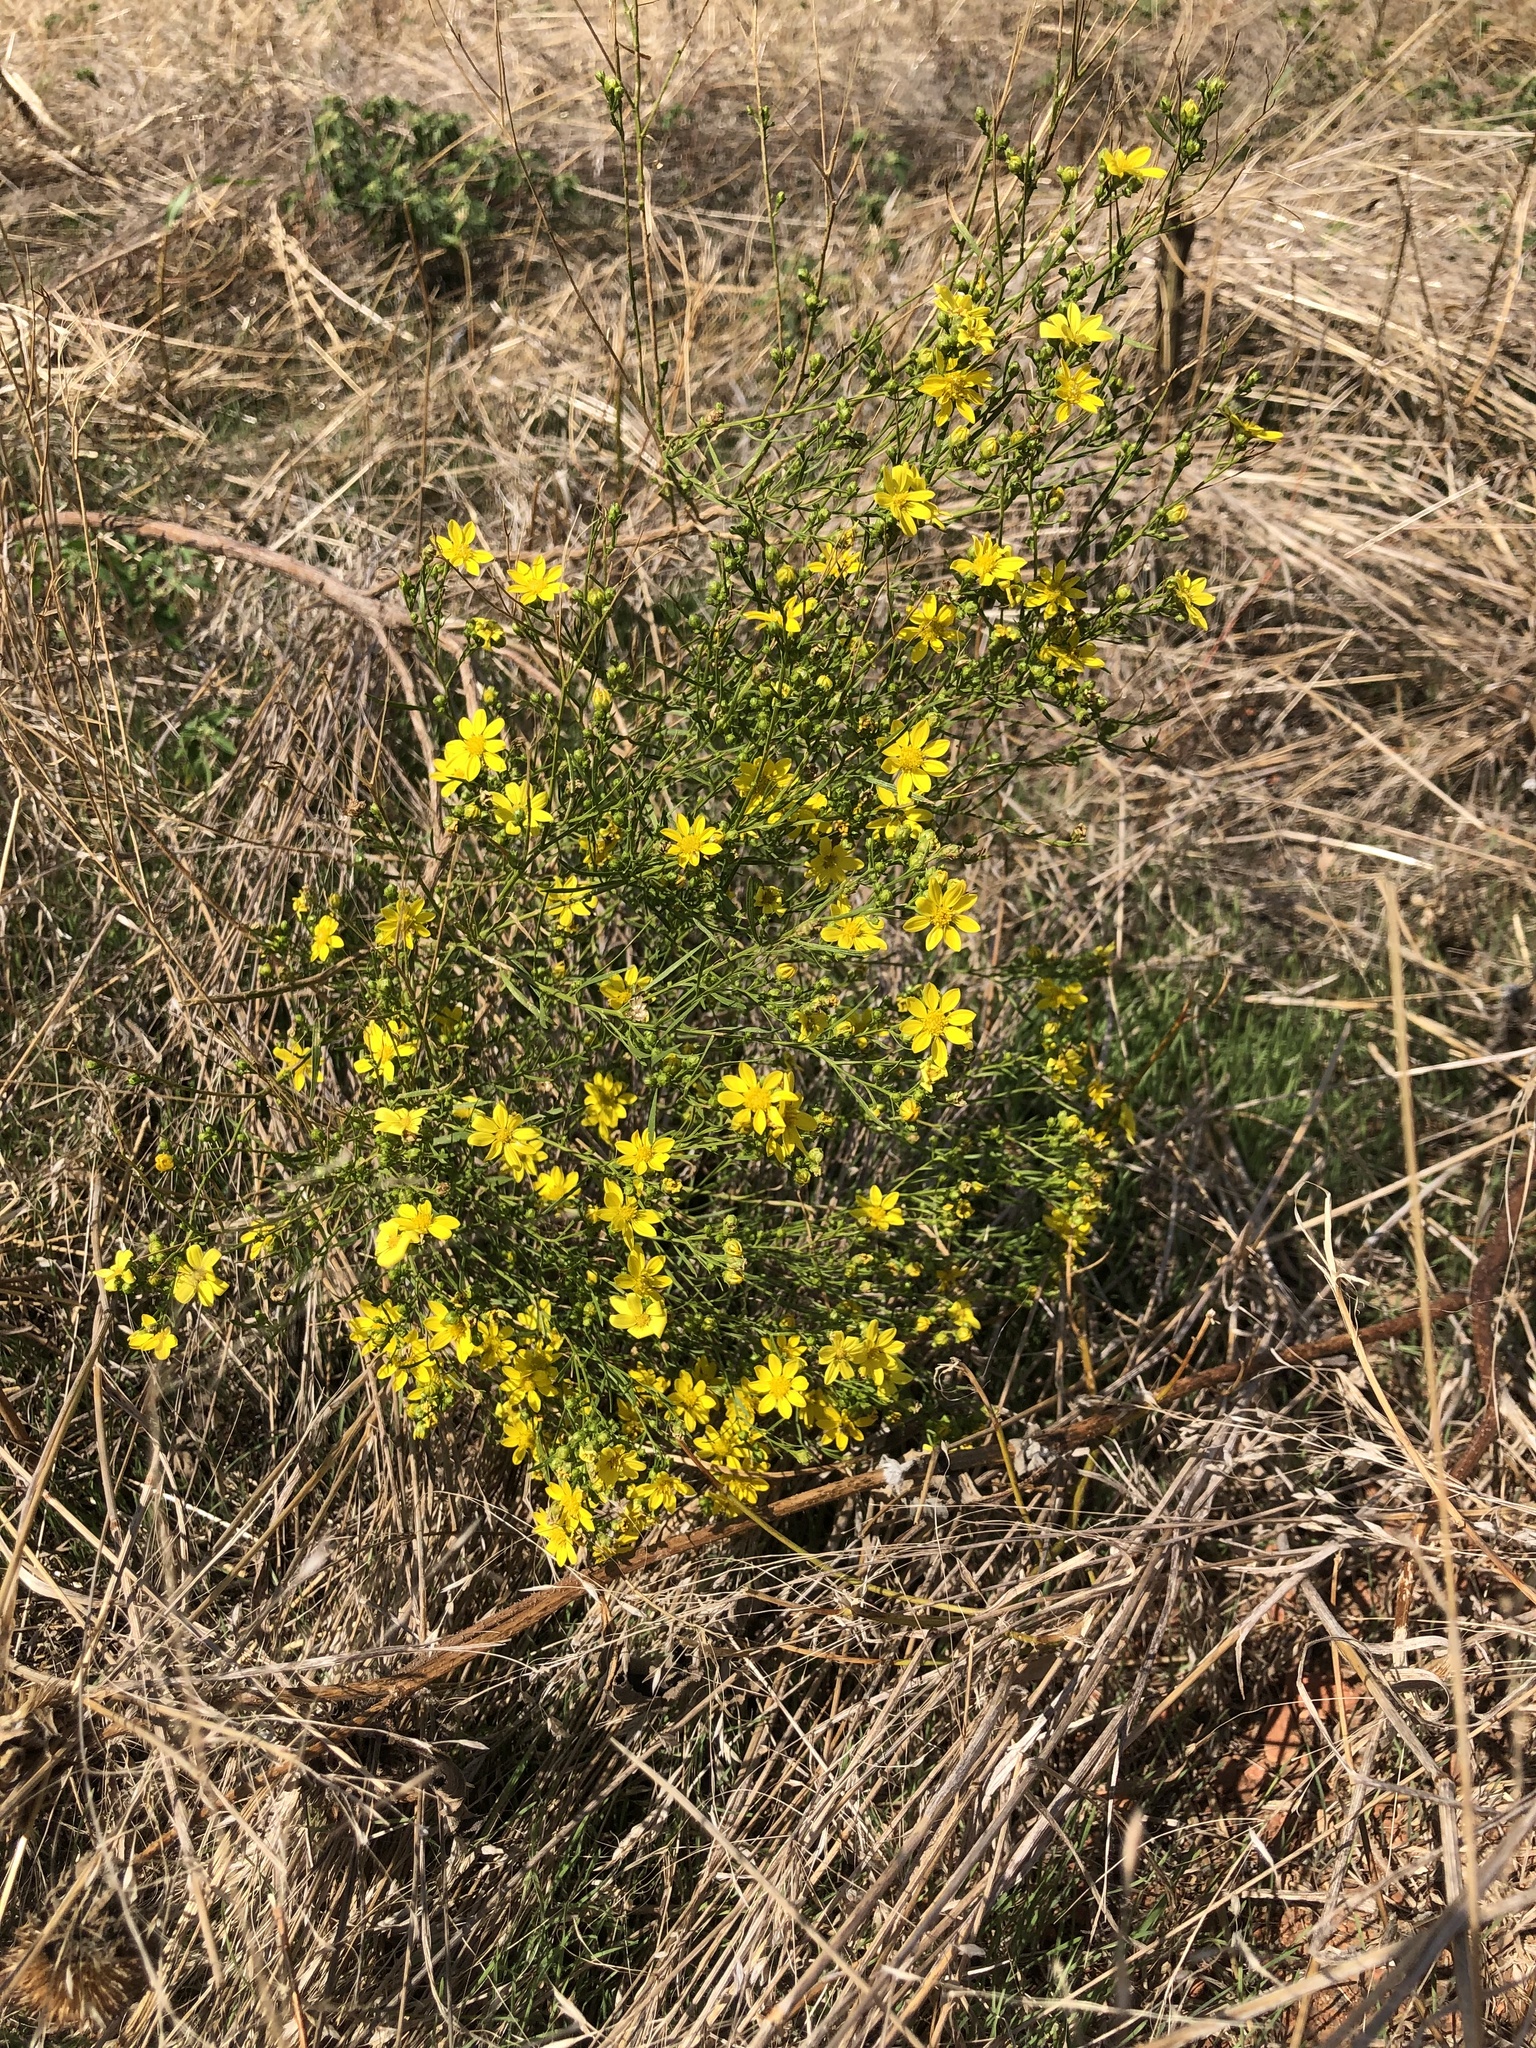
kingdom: Plantae
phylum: Tracheophyta
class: Magnoliopsida
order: Asterales
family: Asteraceae
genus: Amphiachyris
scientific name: Amphiachyris dracunculoides
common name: Broomweed
